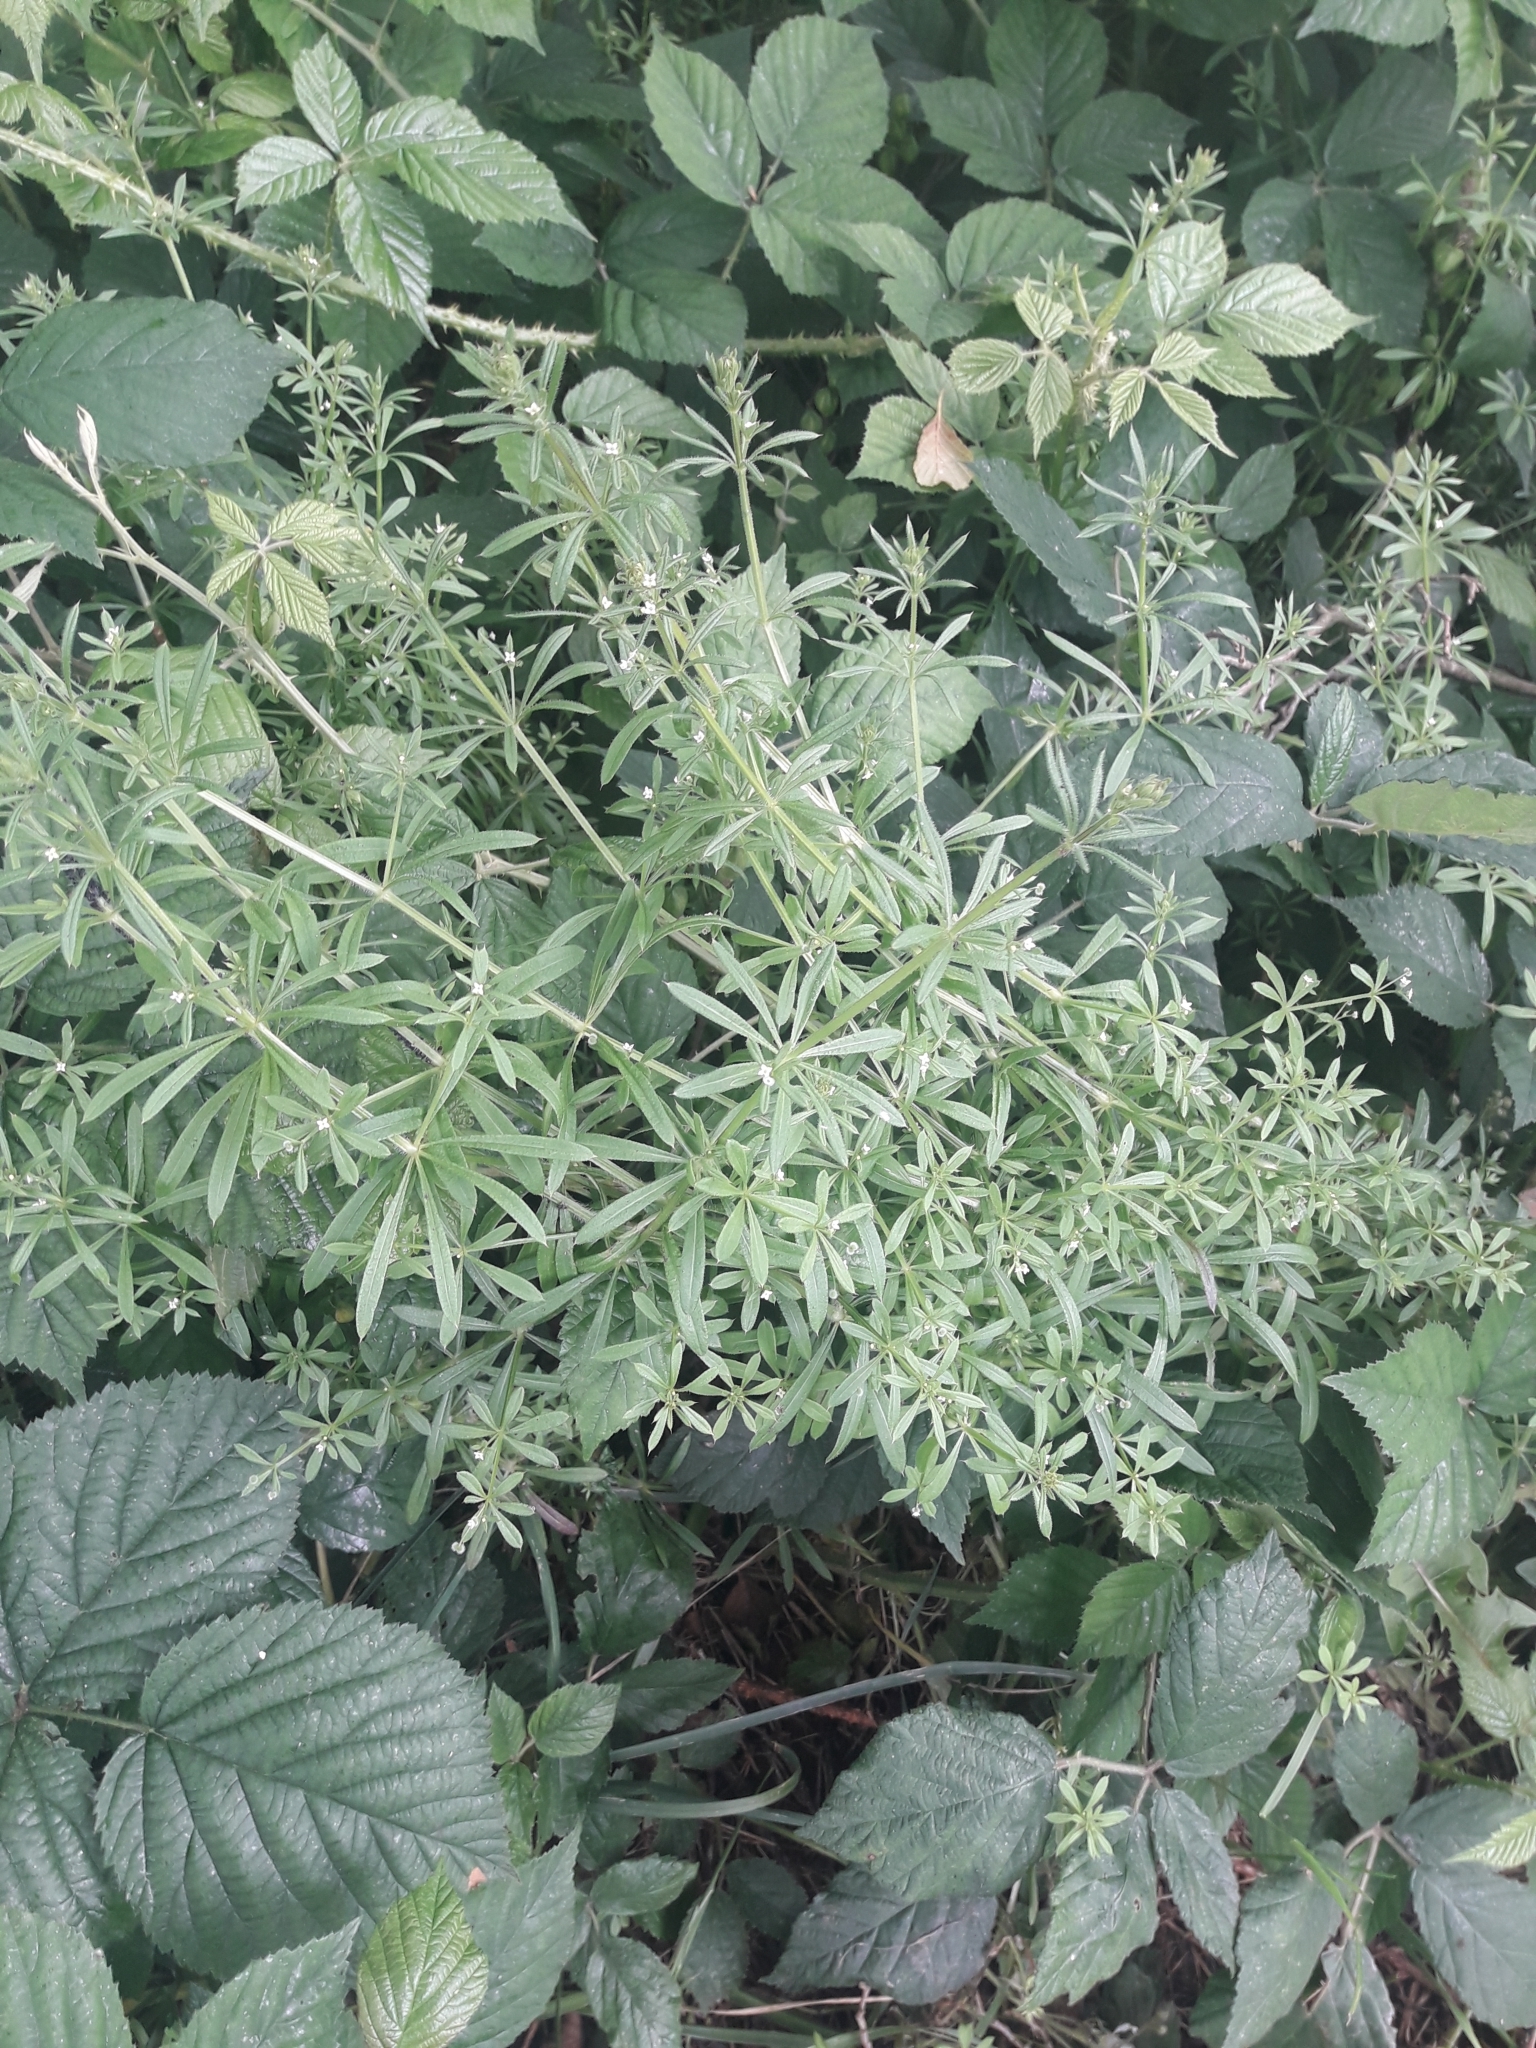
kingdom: Plantae
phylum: Tracheophyta
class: Magnoliopsida
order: Gentianales
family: Rubiaceae
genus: Galium
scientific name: Galium aparine
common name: Cleavers
